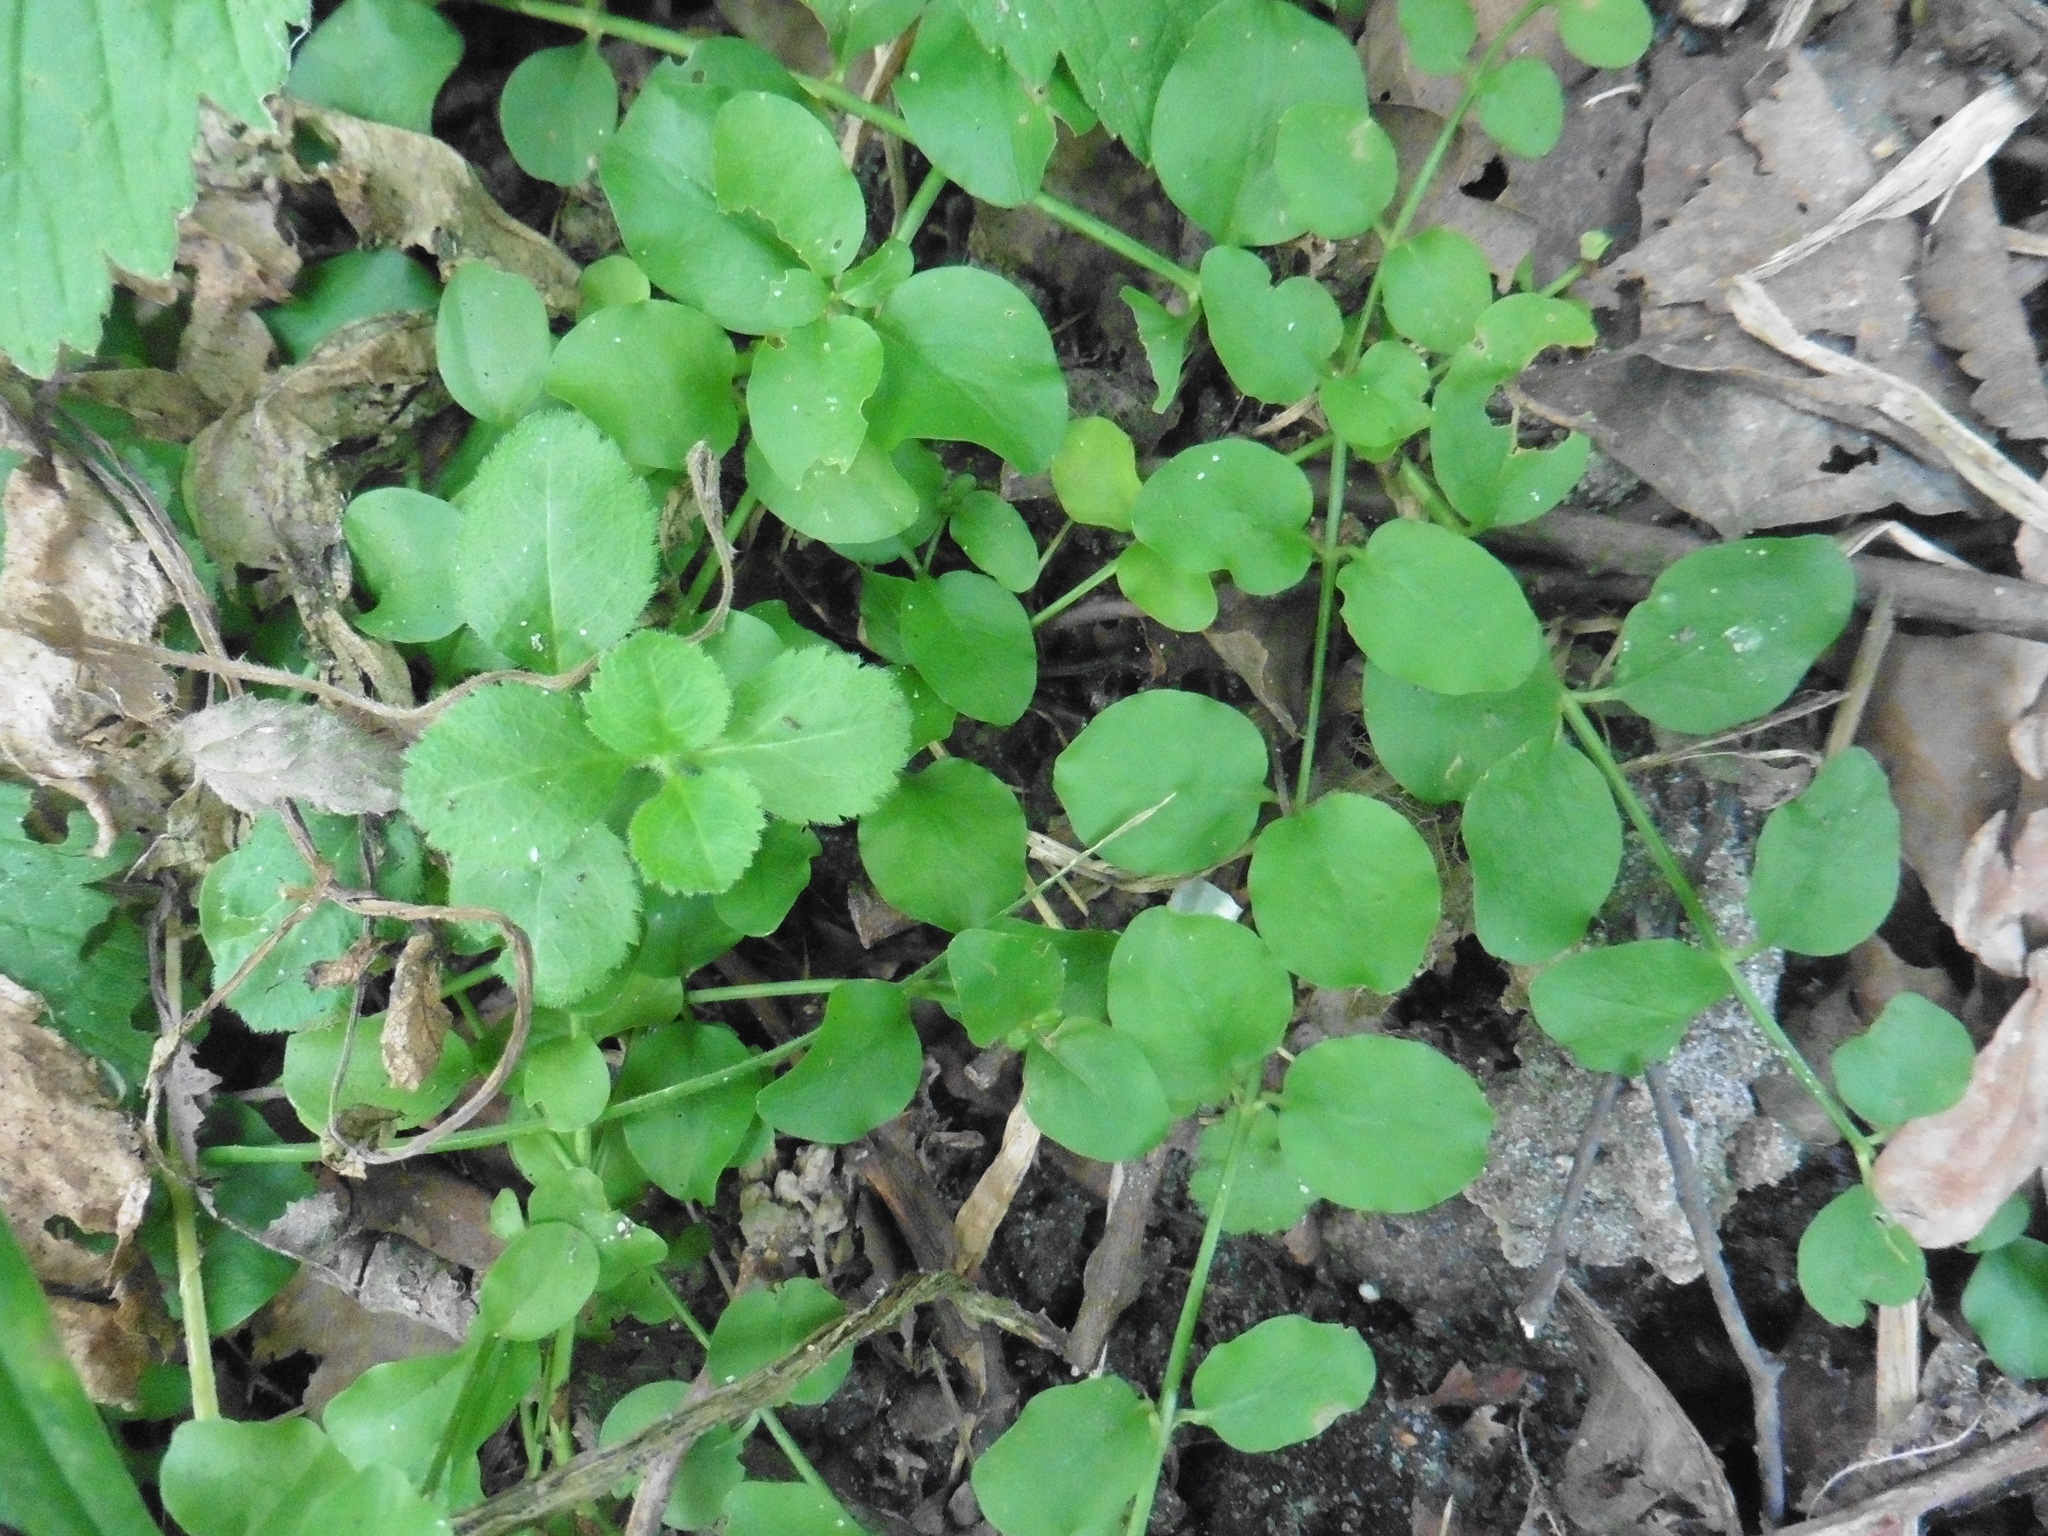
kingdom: Plantae
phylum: Tracheophyta
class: Magnoliopsida
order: Ericales
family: Primulaceae
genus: Lysimachia
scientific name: Lysimachia nummularia
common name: Moneywort
